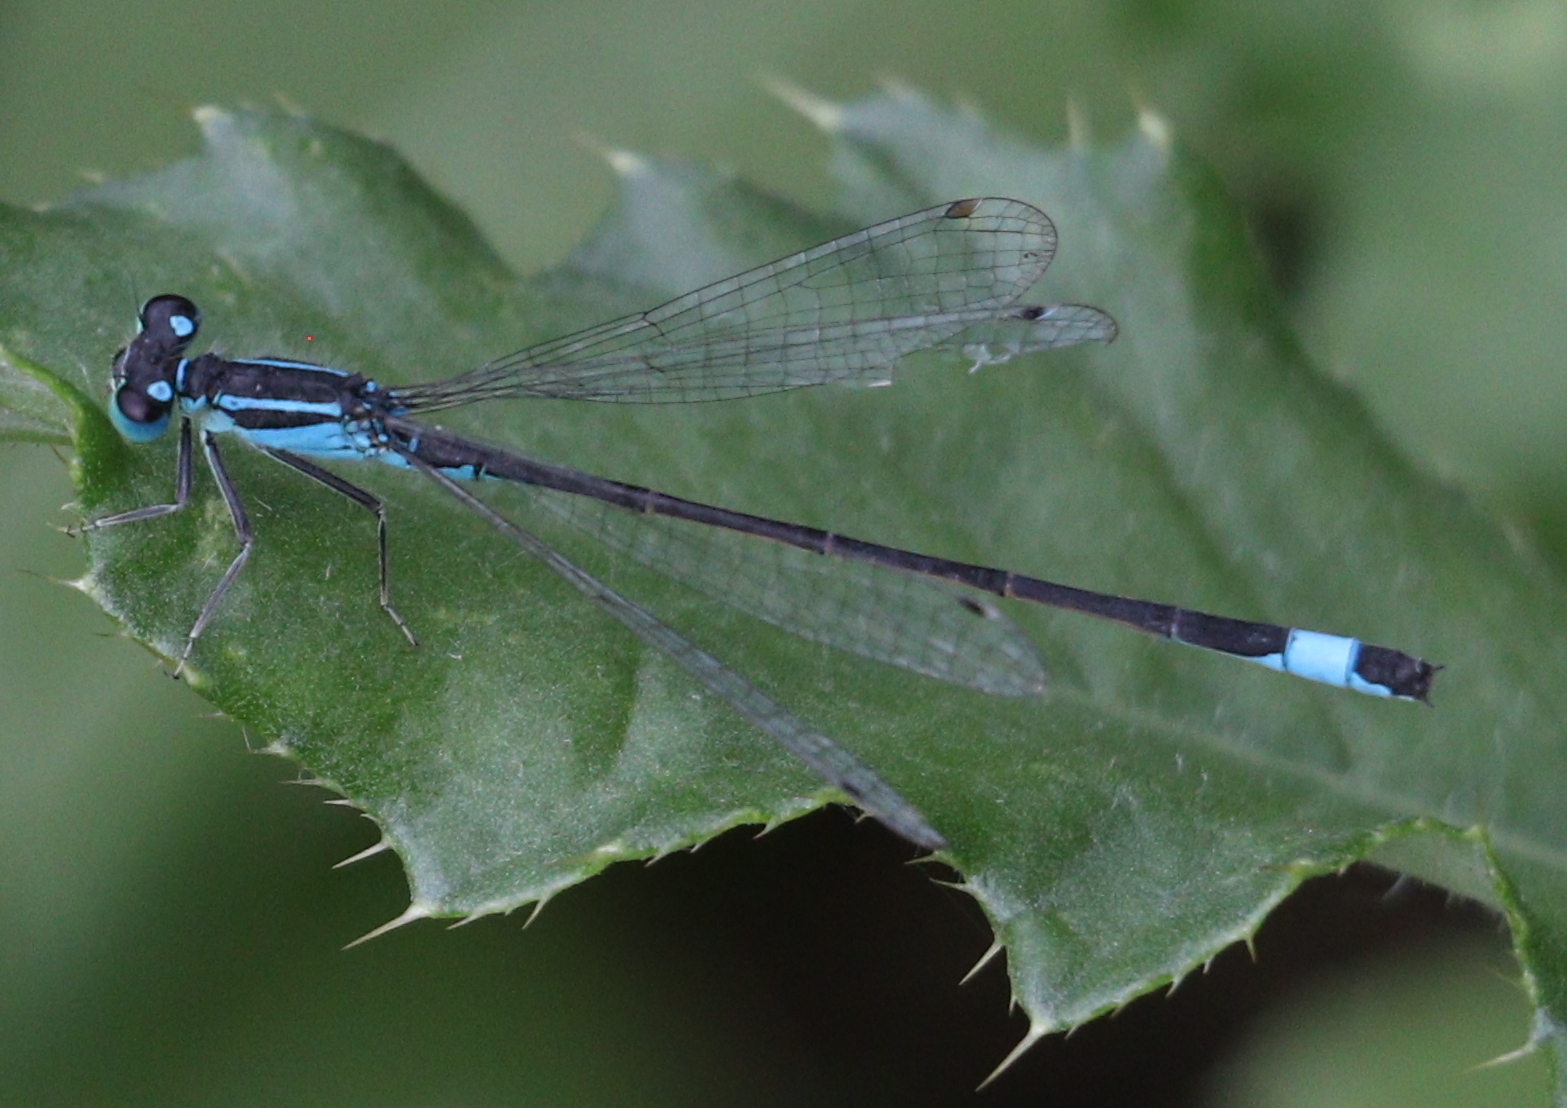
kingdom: Animalia
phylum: Arthropoda
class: Insecta
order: Odonata
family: Coenagrionidae
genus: Ischnura
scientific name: Ischnura elegans
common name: Blue-tailed damselfly
